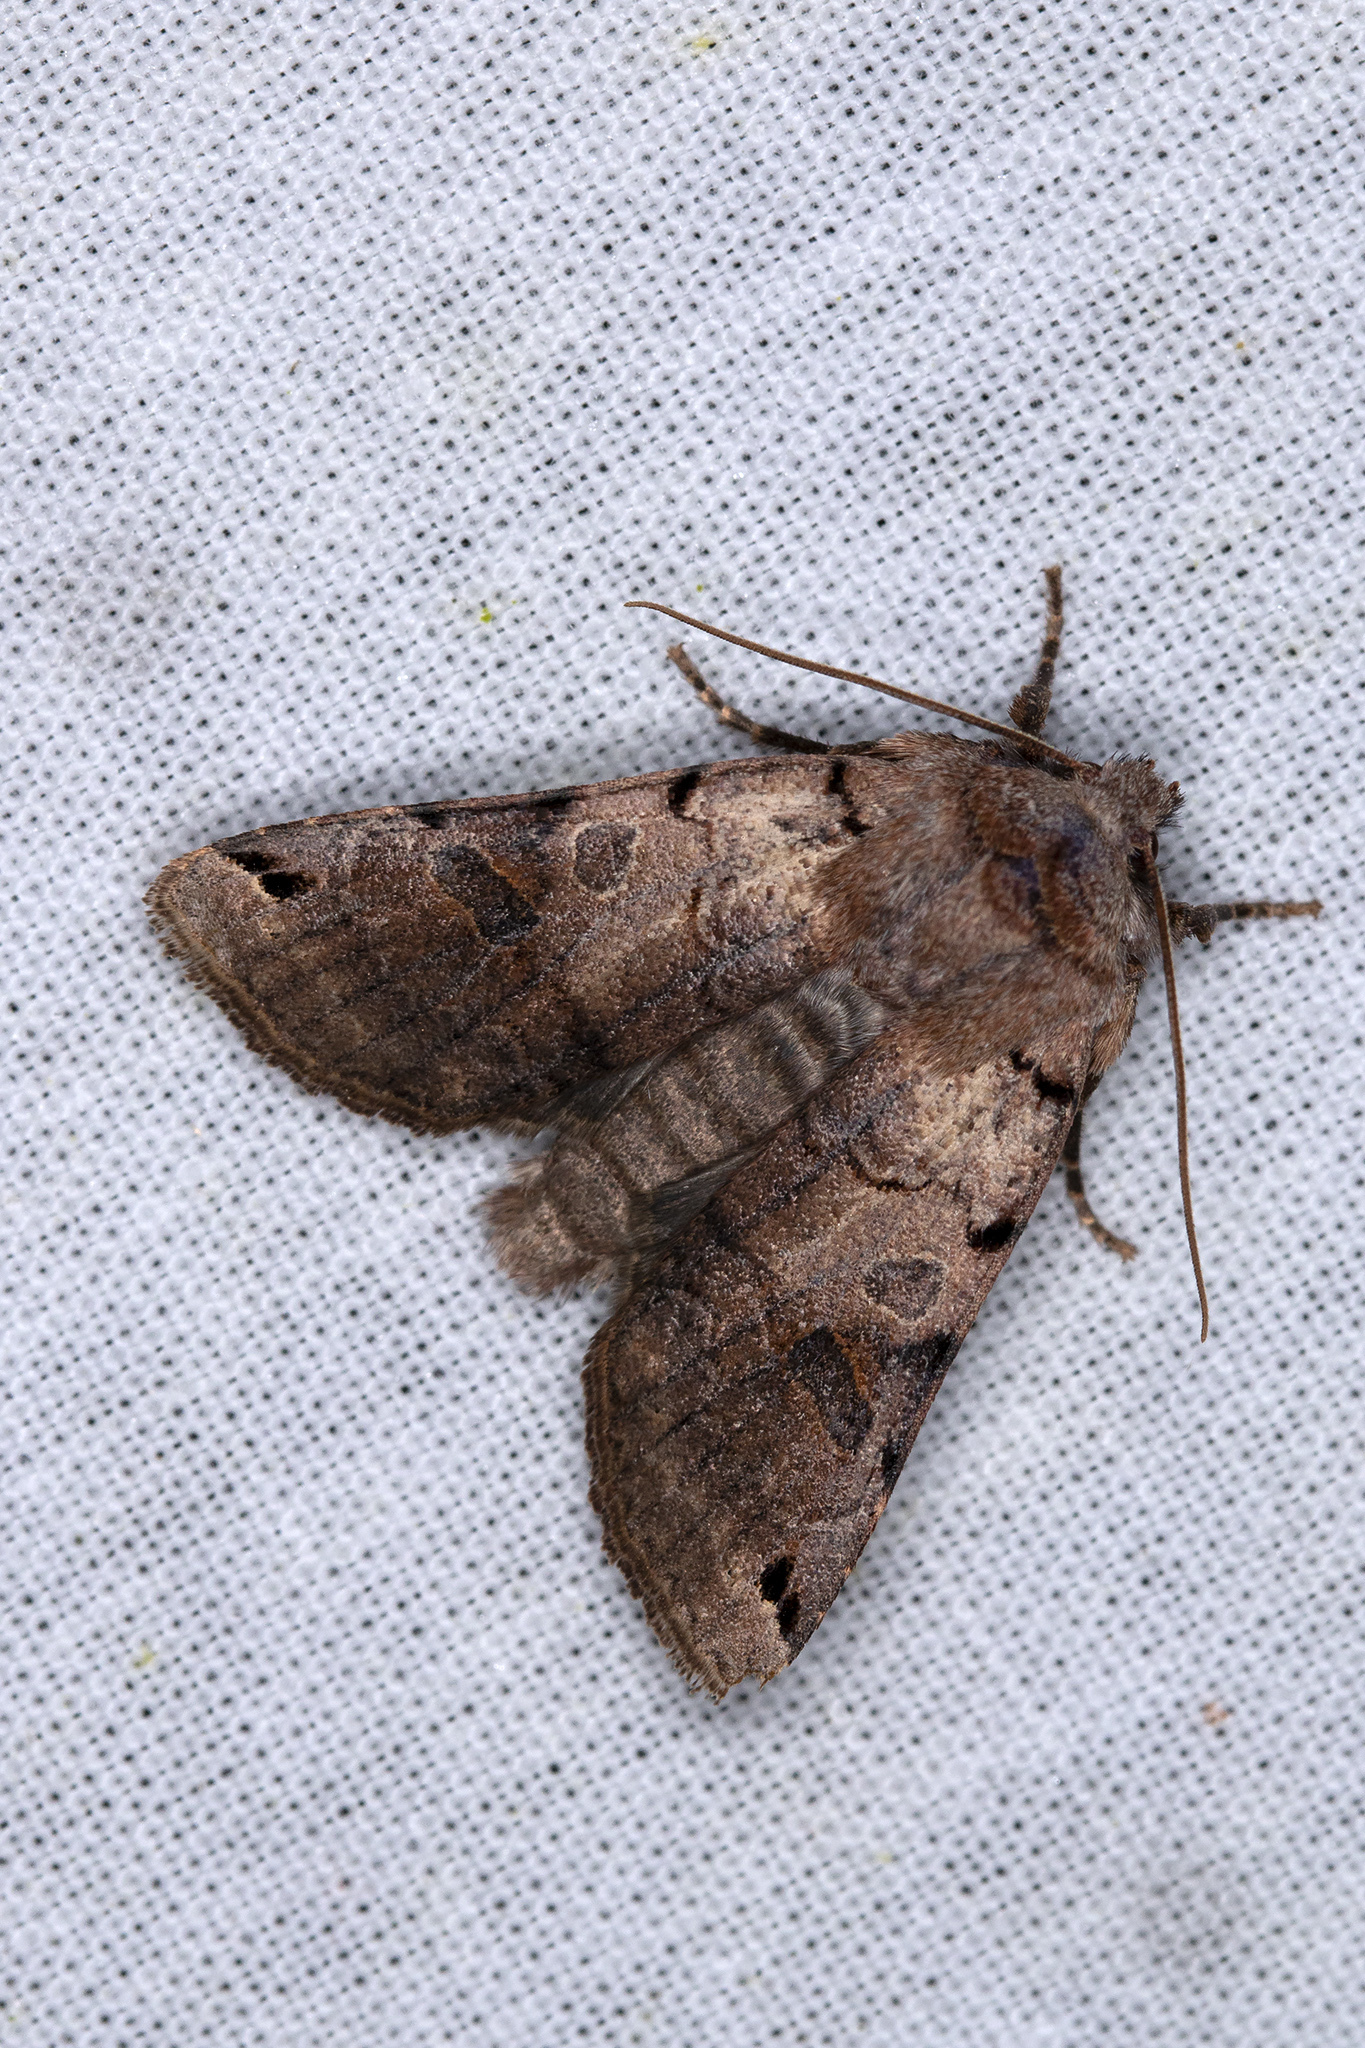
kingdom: Animalia
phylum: Arthropoda
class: Insecta
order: Lepidoptera
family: Noctuidae
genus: Agrochola
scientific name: Agrochola litura
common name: Brown-spot pinion
